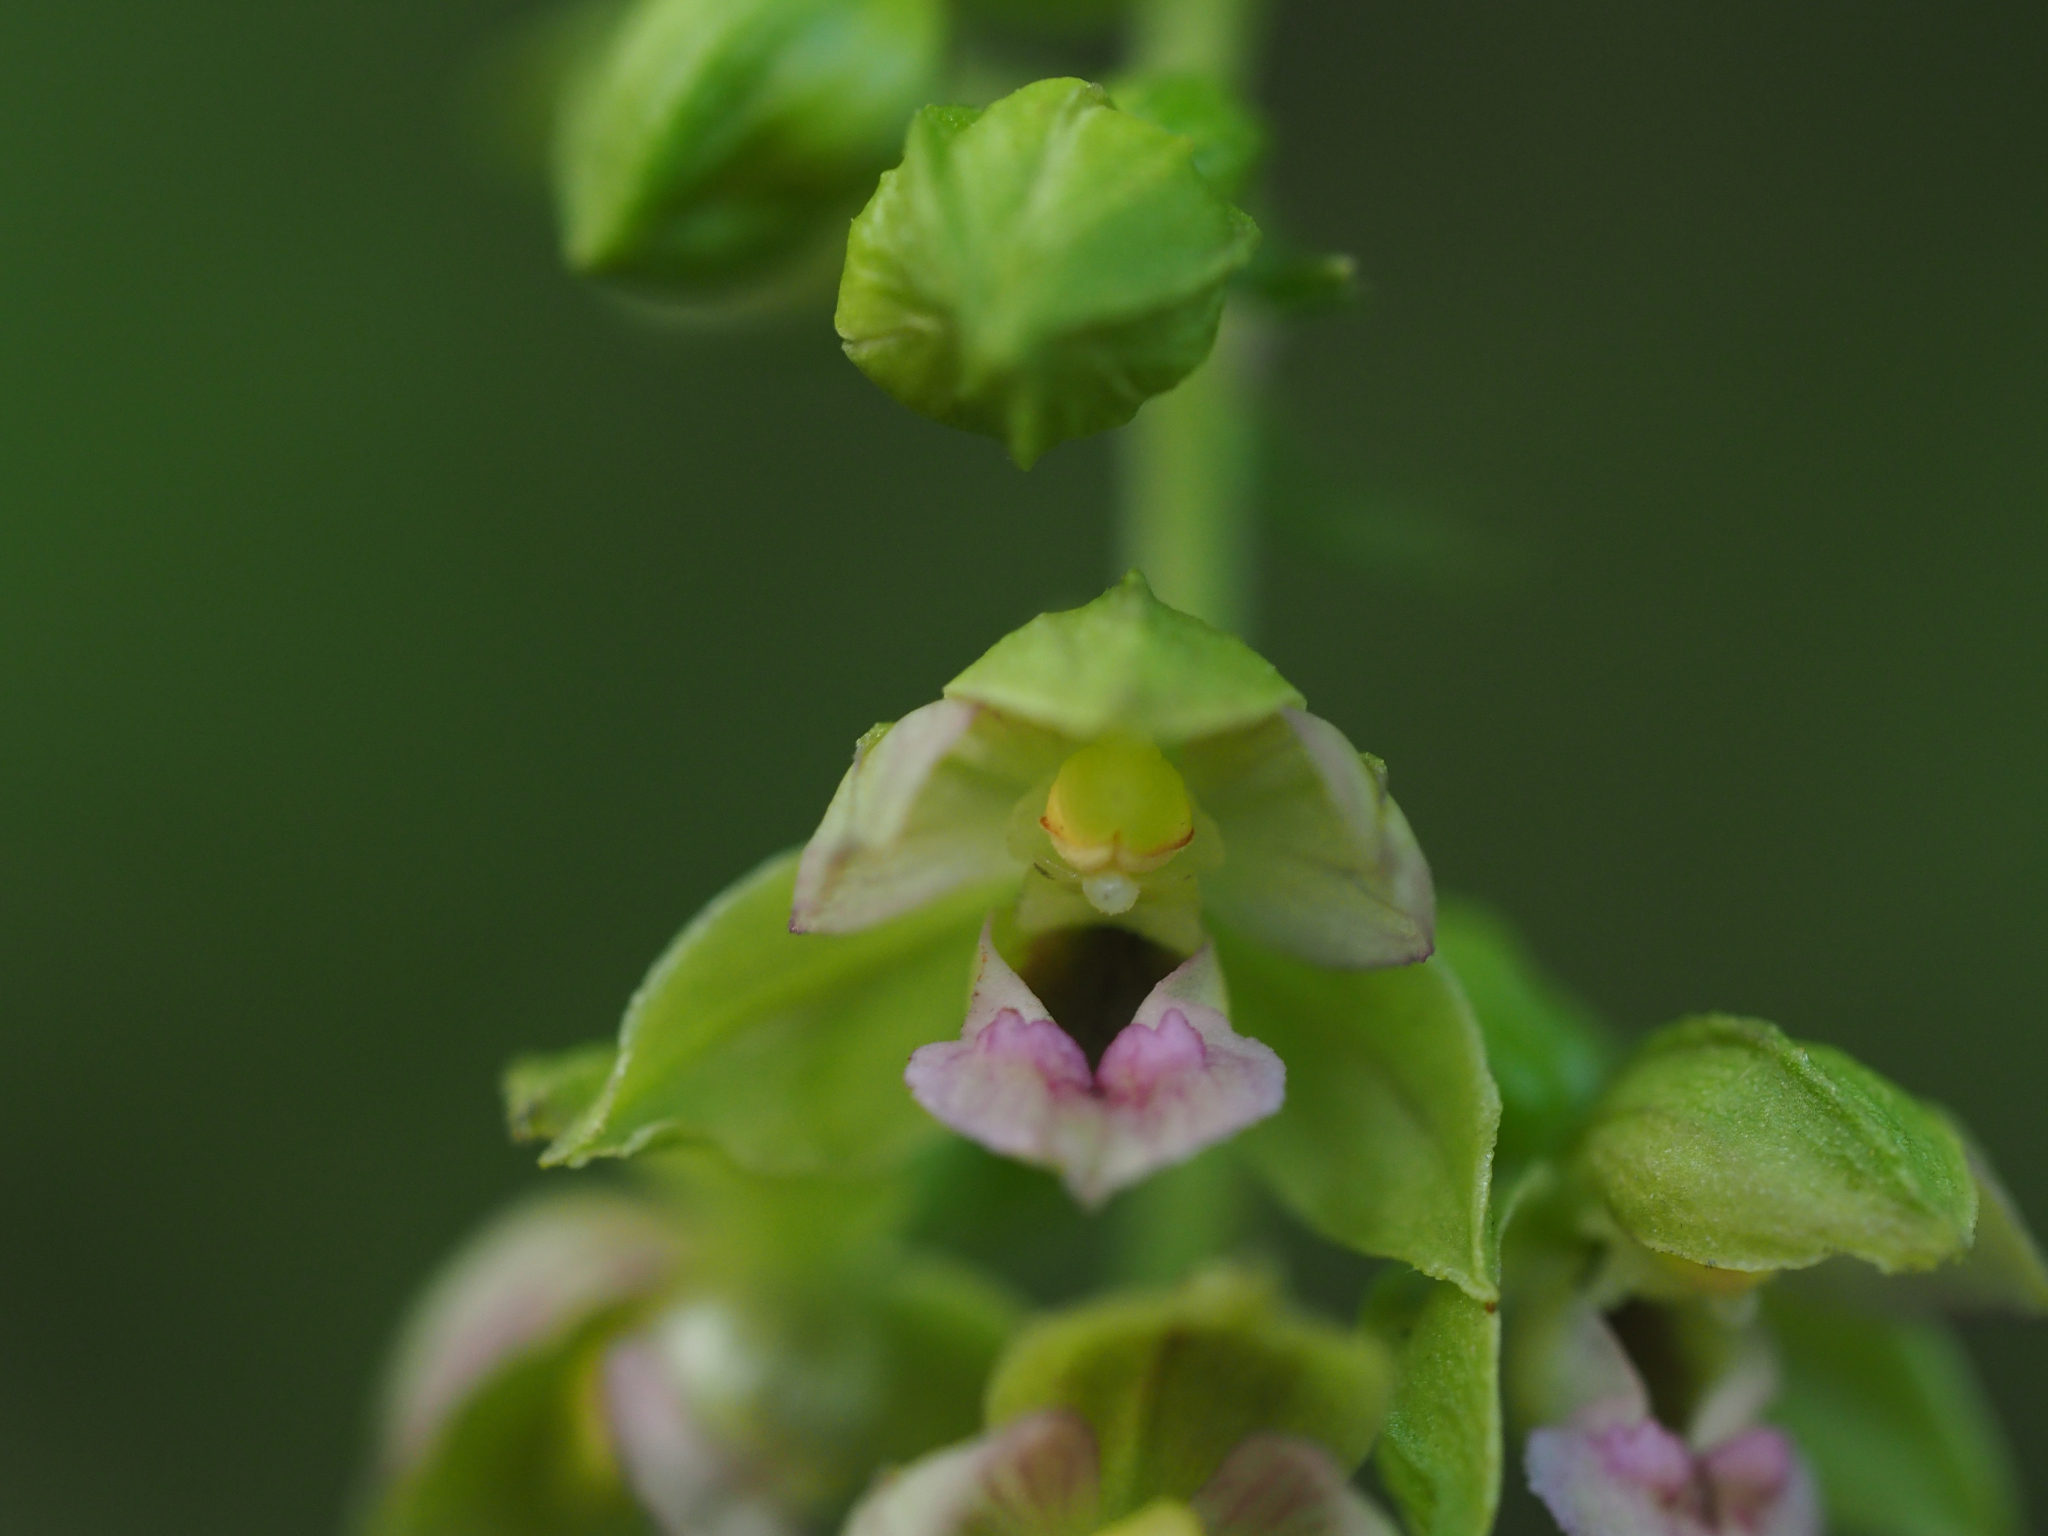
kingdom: Plantae
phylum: Tracheophyta
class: Liliopsida
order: Asparagales
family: Orchidaceae
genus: Epipactis
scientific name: Epipactis helleborine
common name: Broad-leaved helleborine
